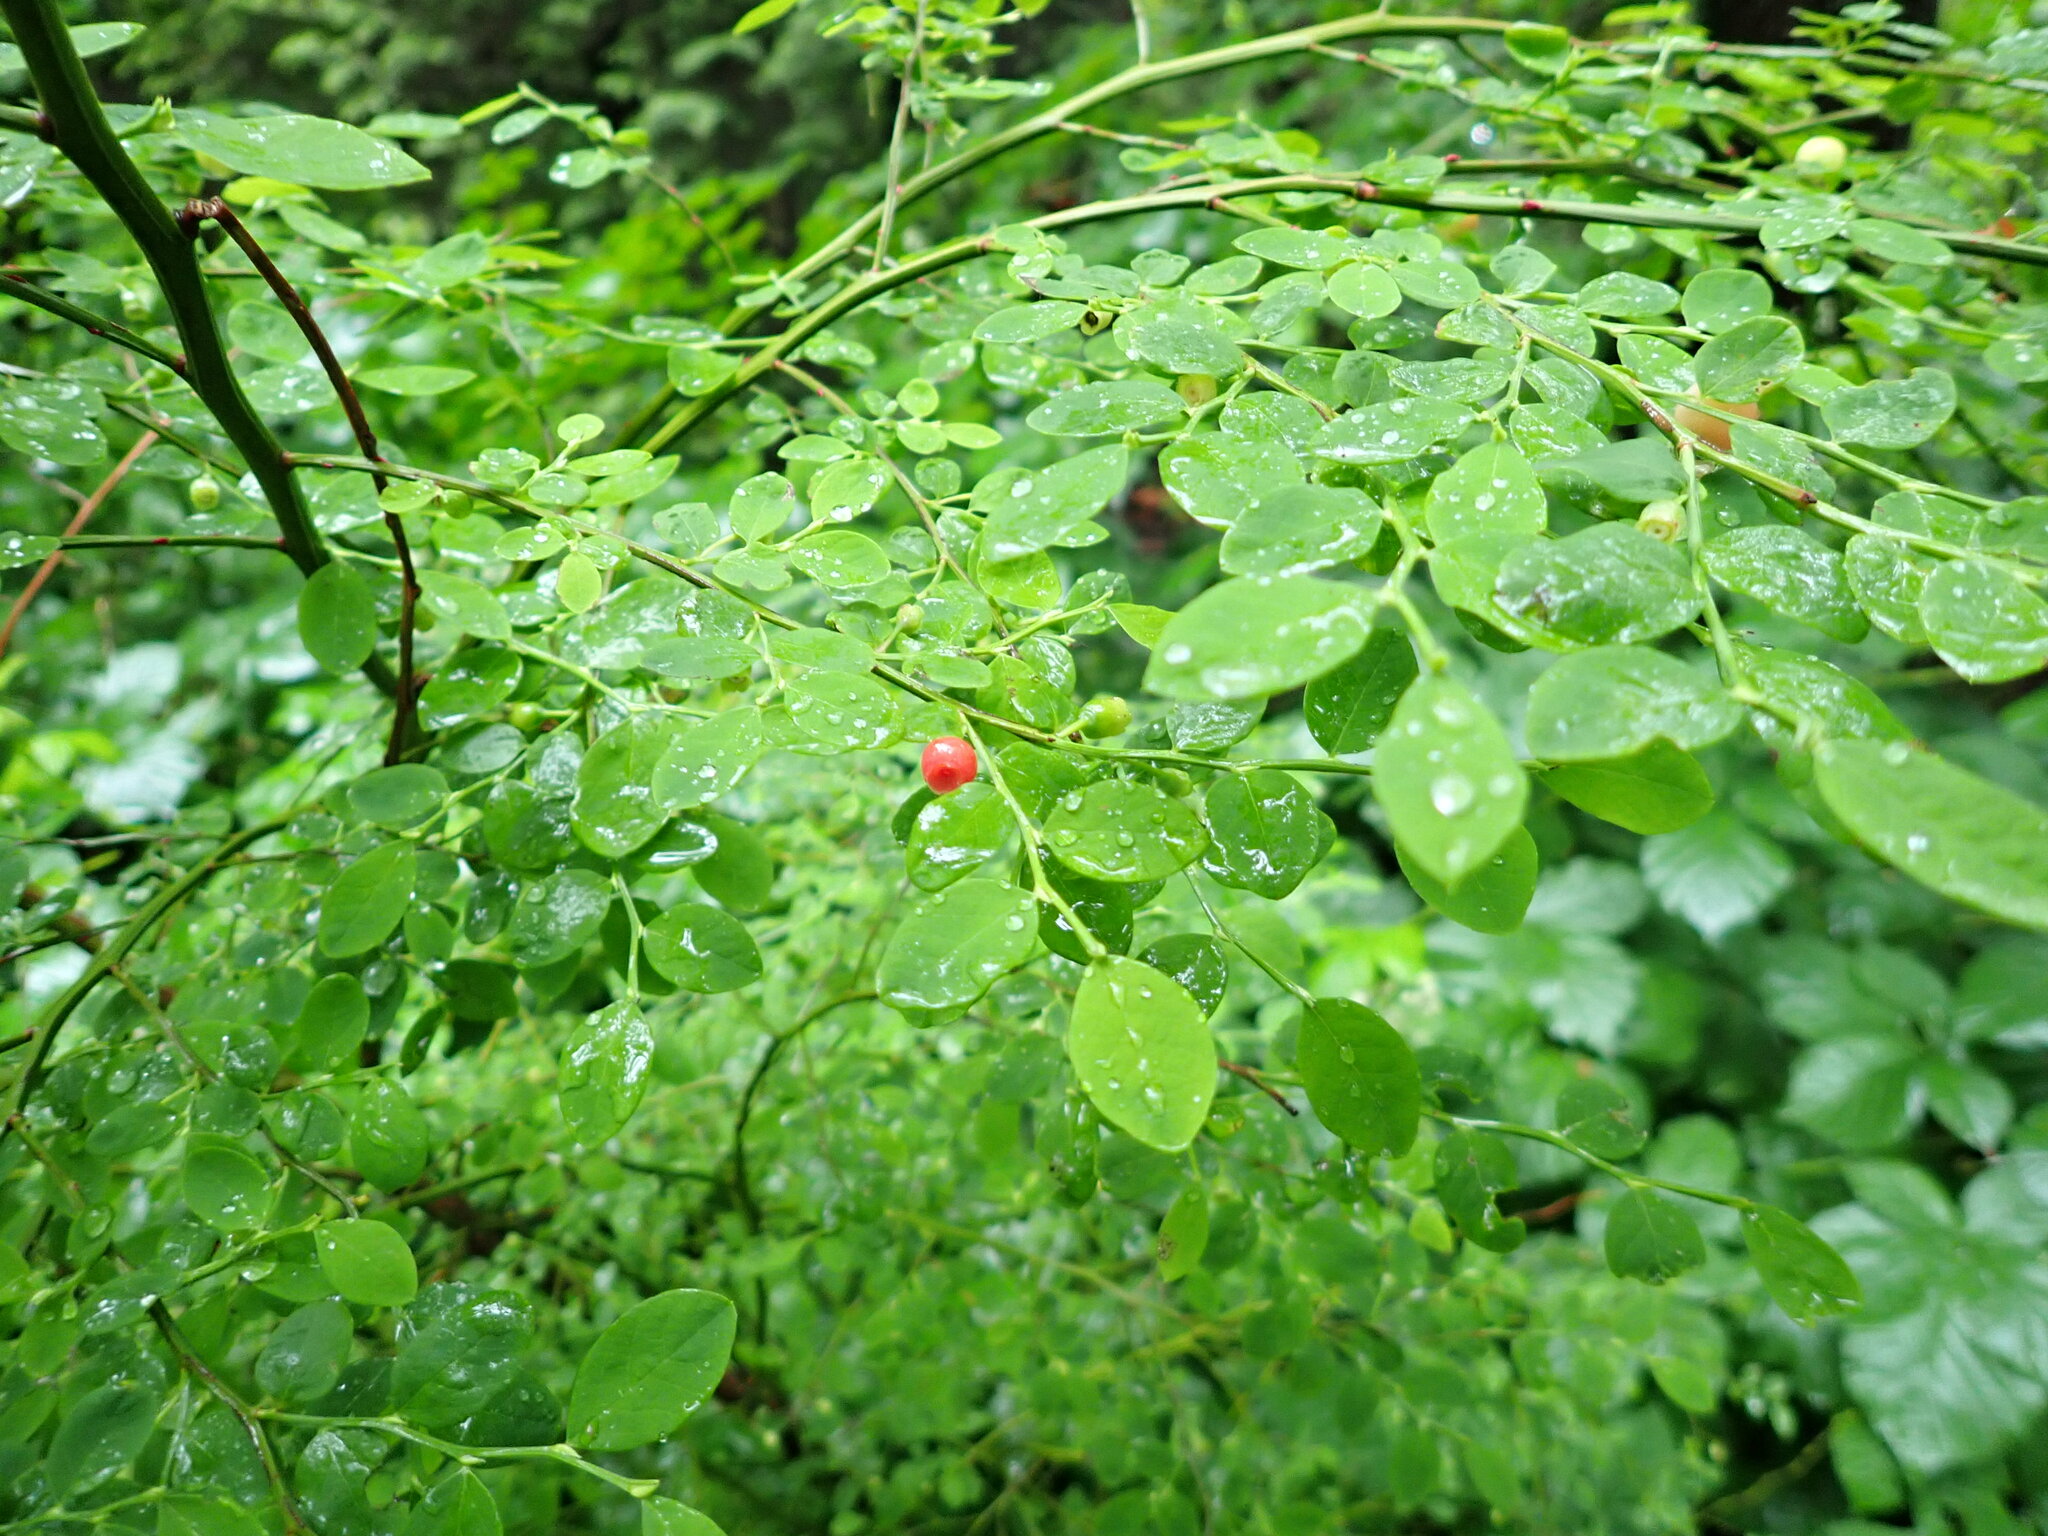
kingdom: Plantae
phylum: Tracheophyta
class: Magnoliopsida
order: Ericales
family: Ericaceae
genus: Vaccinium
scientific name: Vaccinium parvifolium
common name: Red-huckleberry
